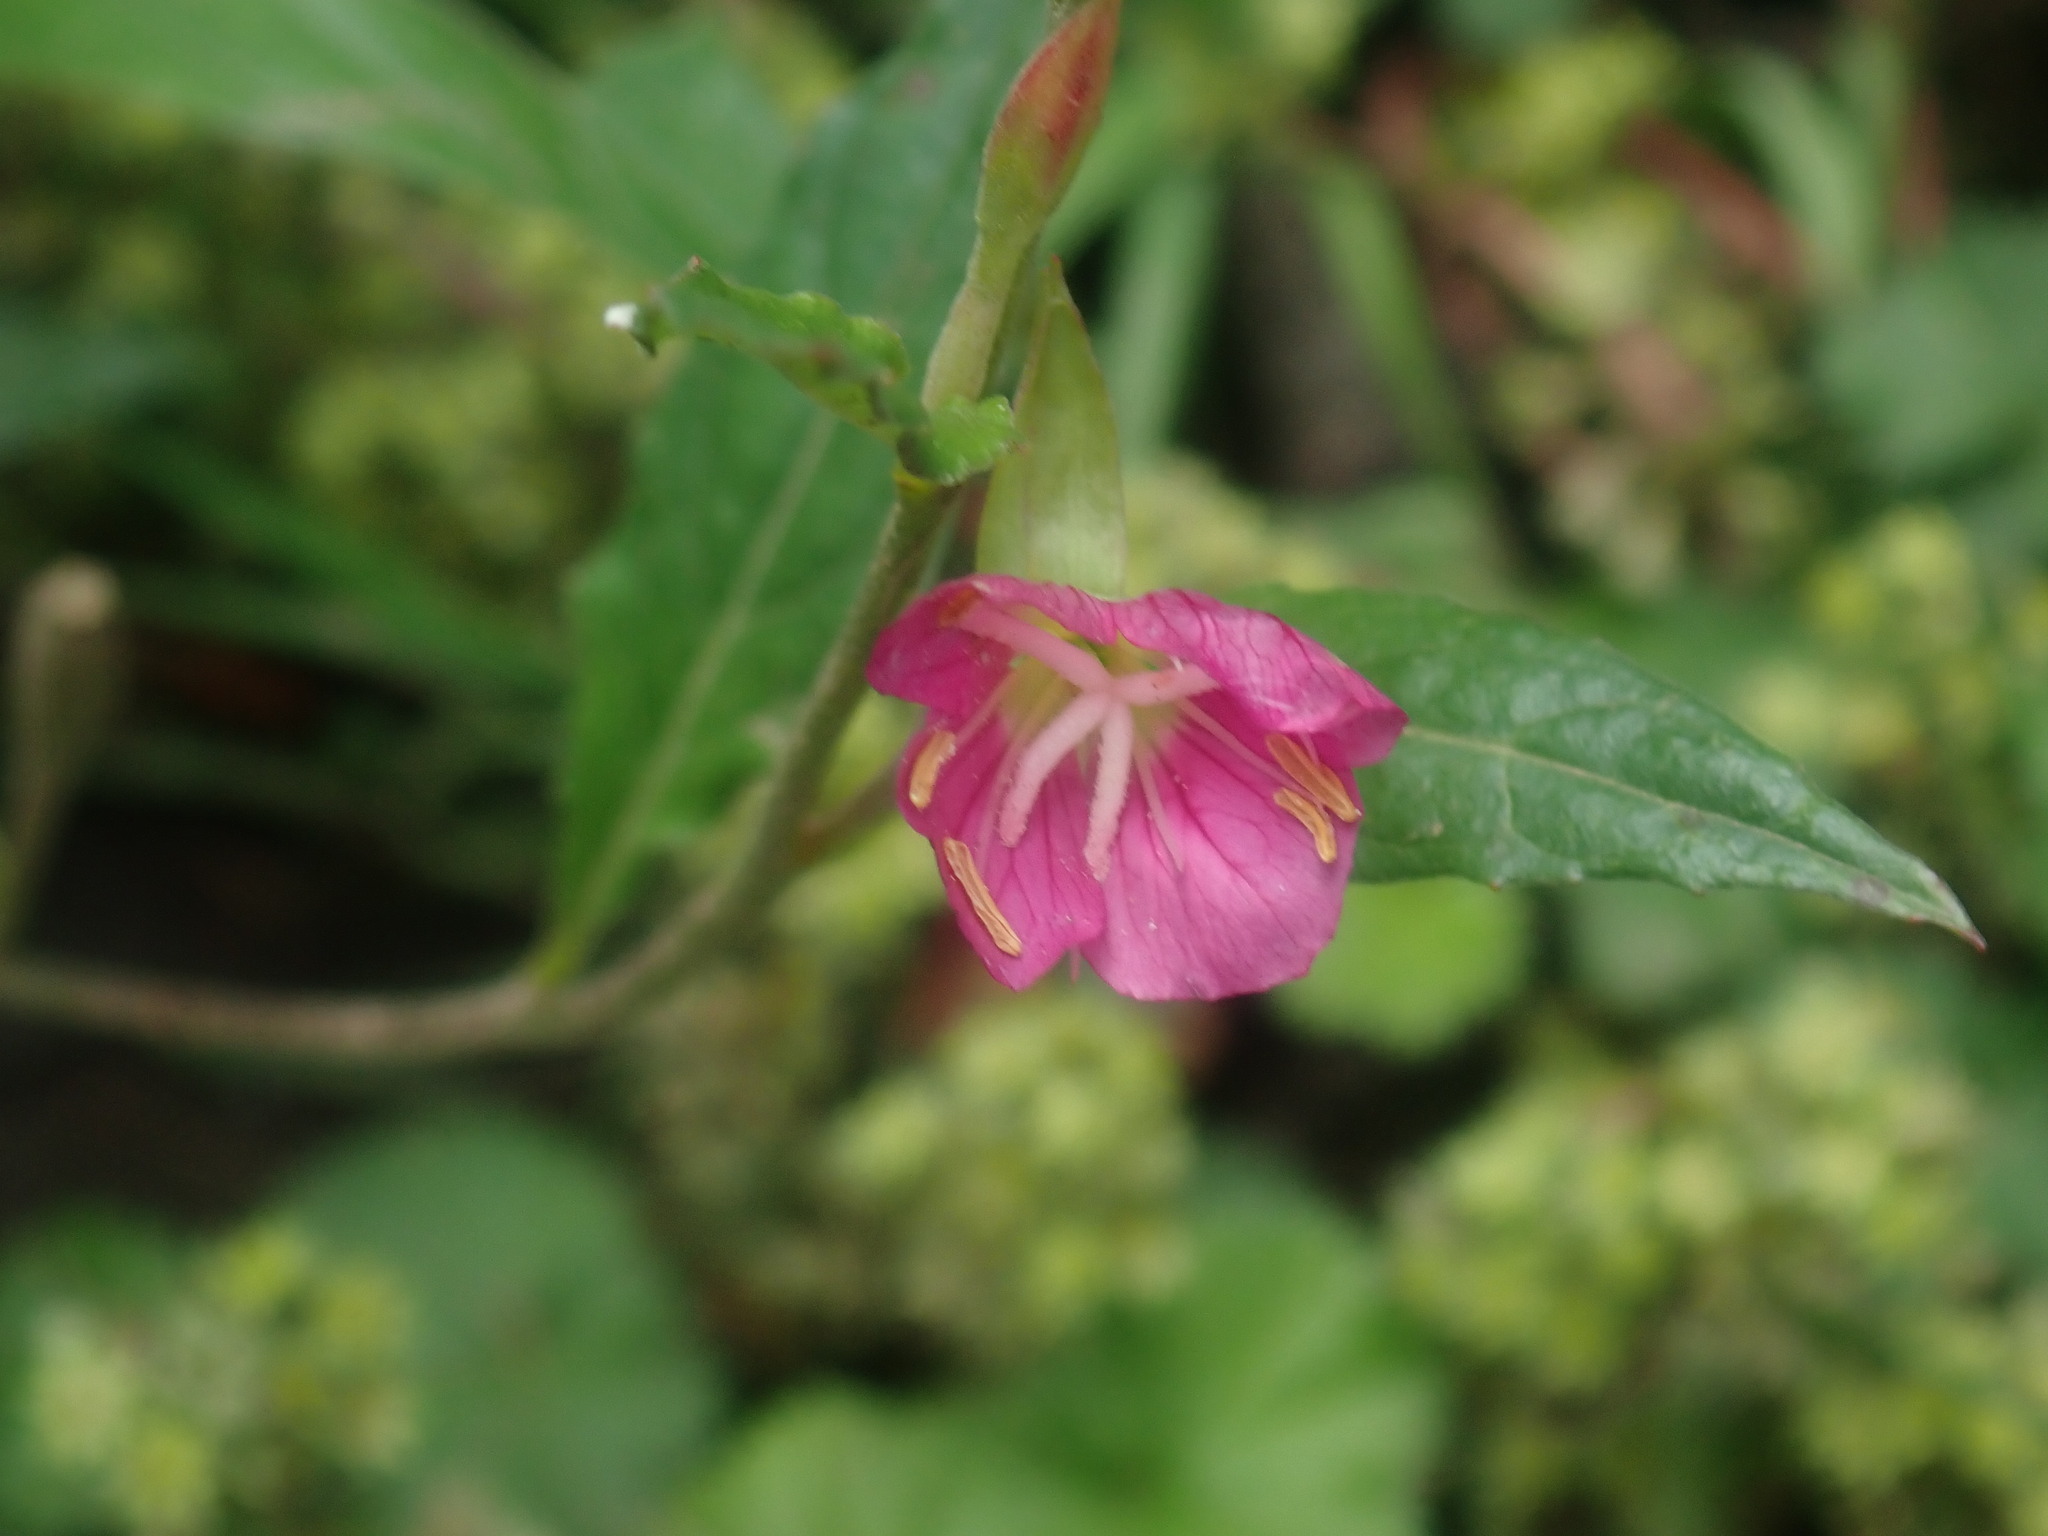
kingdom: Plantae
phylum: Tracheophyta
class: Magnoliopsida
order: Myrtales
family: Onagraceae
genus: Oenothera
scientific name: Oenothera rosea
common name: Rosy evening-primrose
